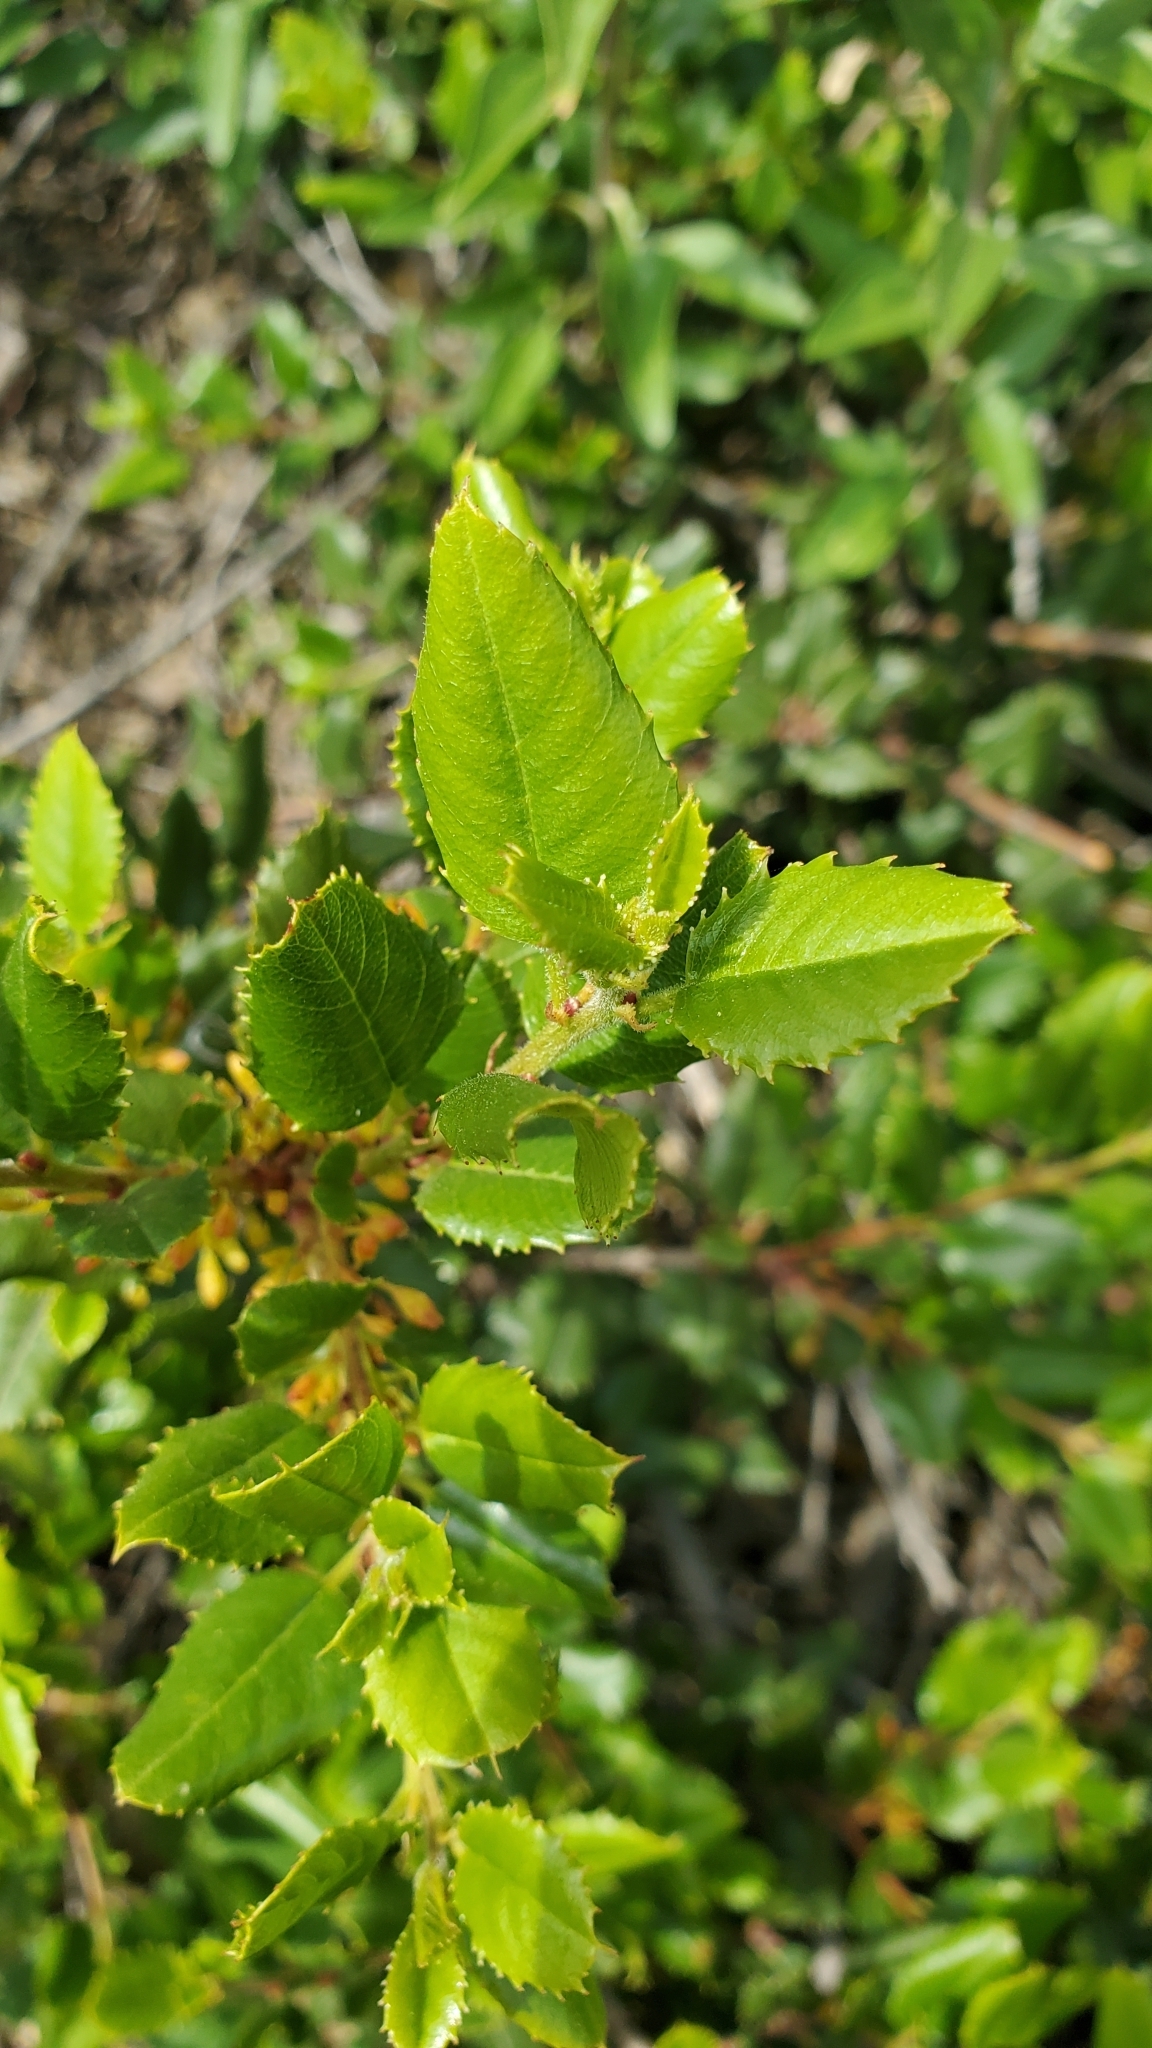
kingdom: Plantae
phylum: Tracheophyta
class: Magnoliopsida
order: Rosales
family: Rhamnaceae
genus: Endotropis
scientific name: Endotropis crocea
